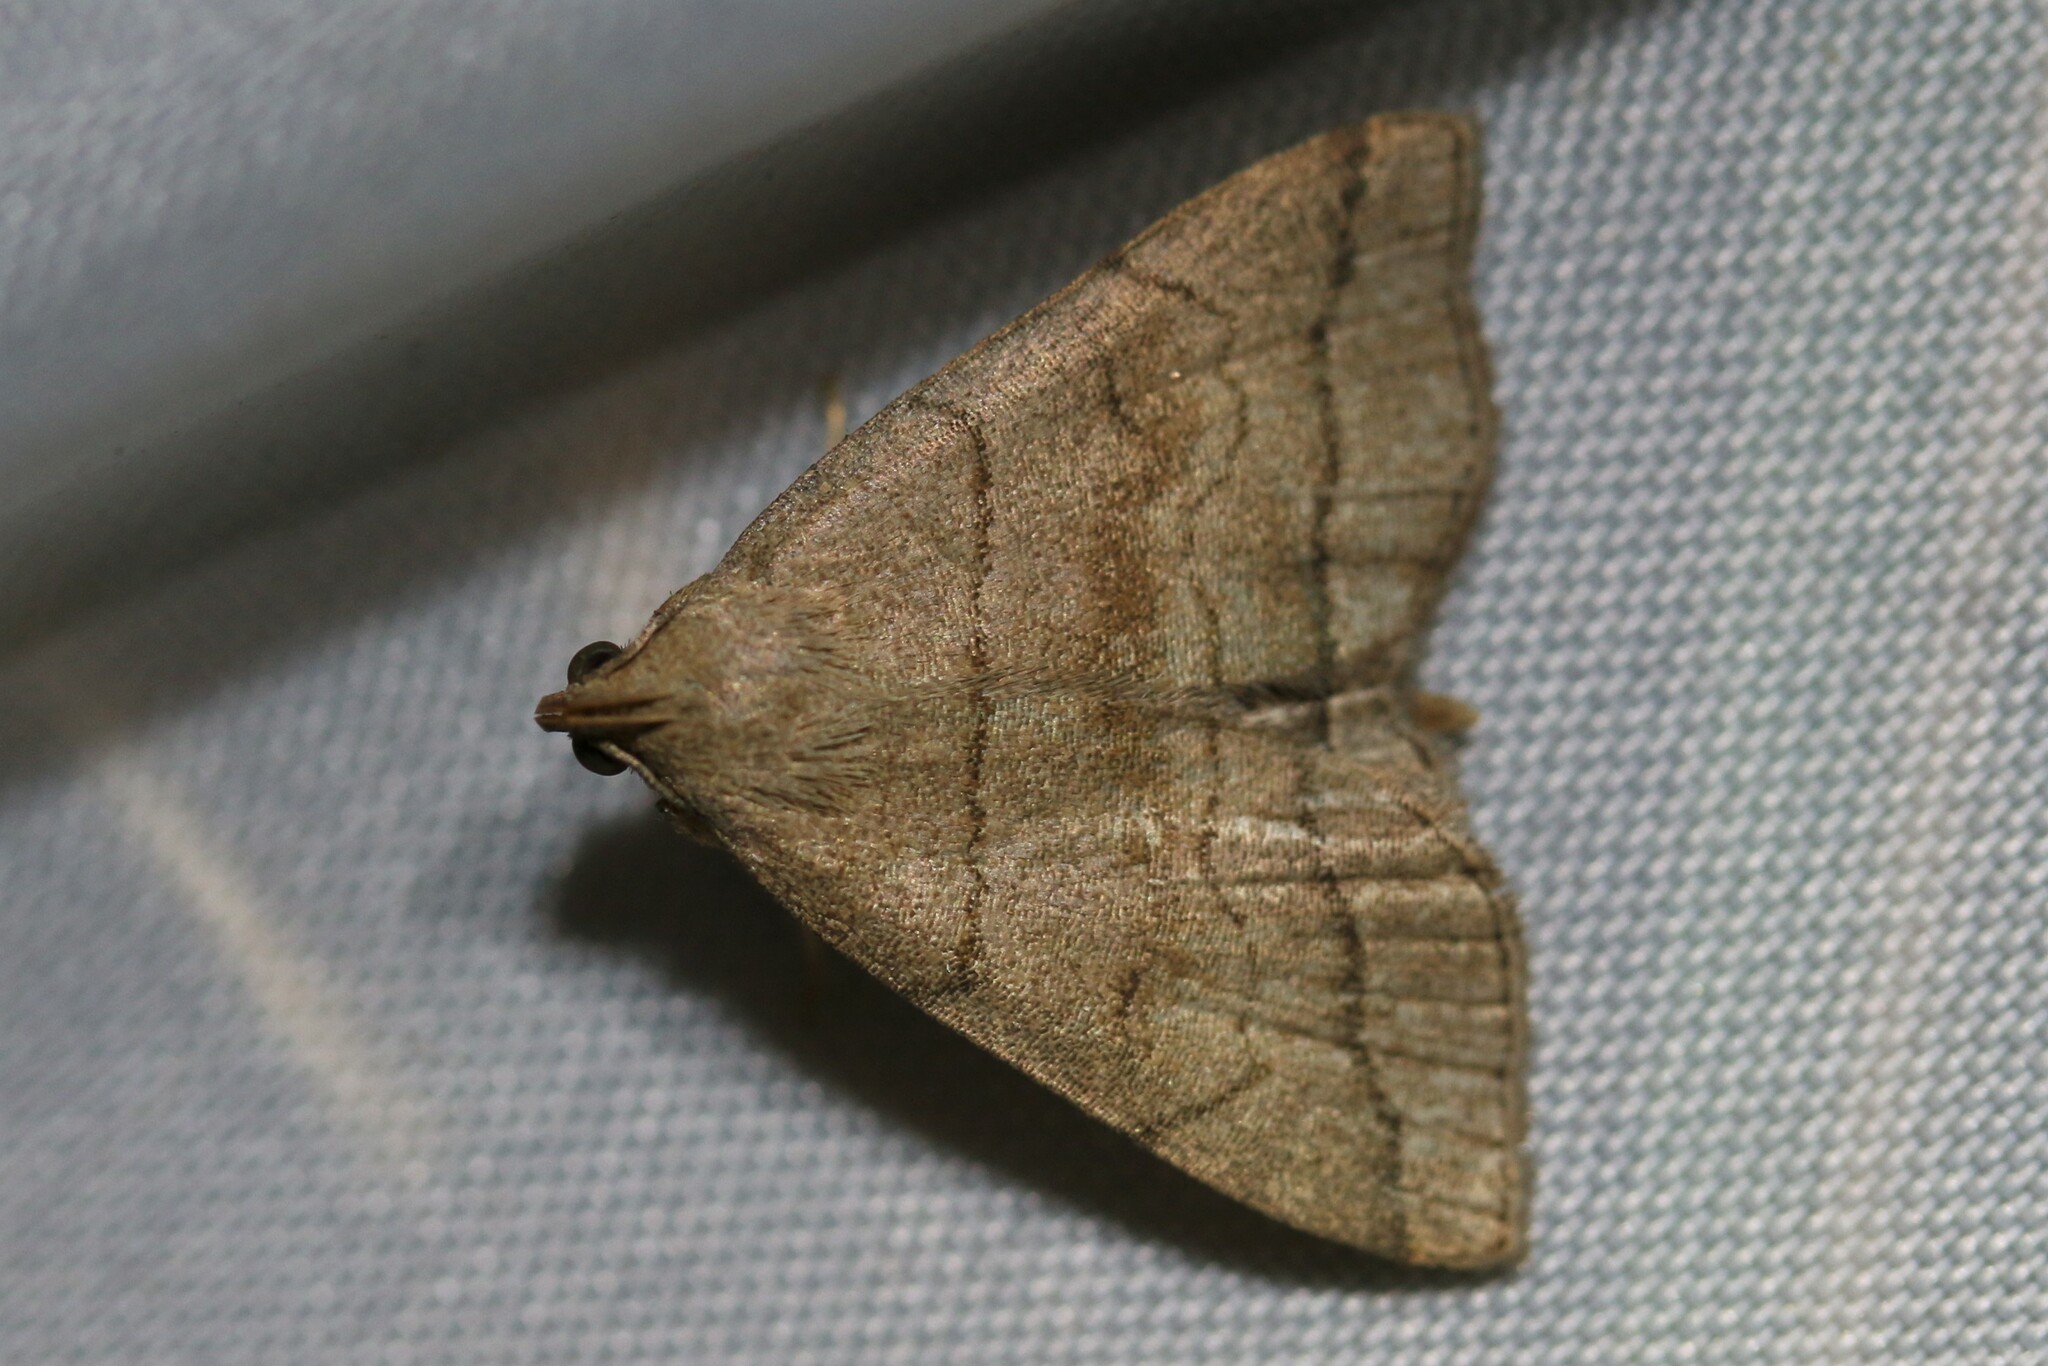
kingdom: Animalia
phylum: Arthropoda
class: Insecta
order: Lepidoptera
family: Erebidae
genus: Herminia
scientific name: Herminia tarsicrinalis
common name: Shaded fan-foot
